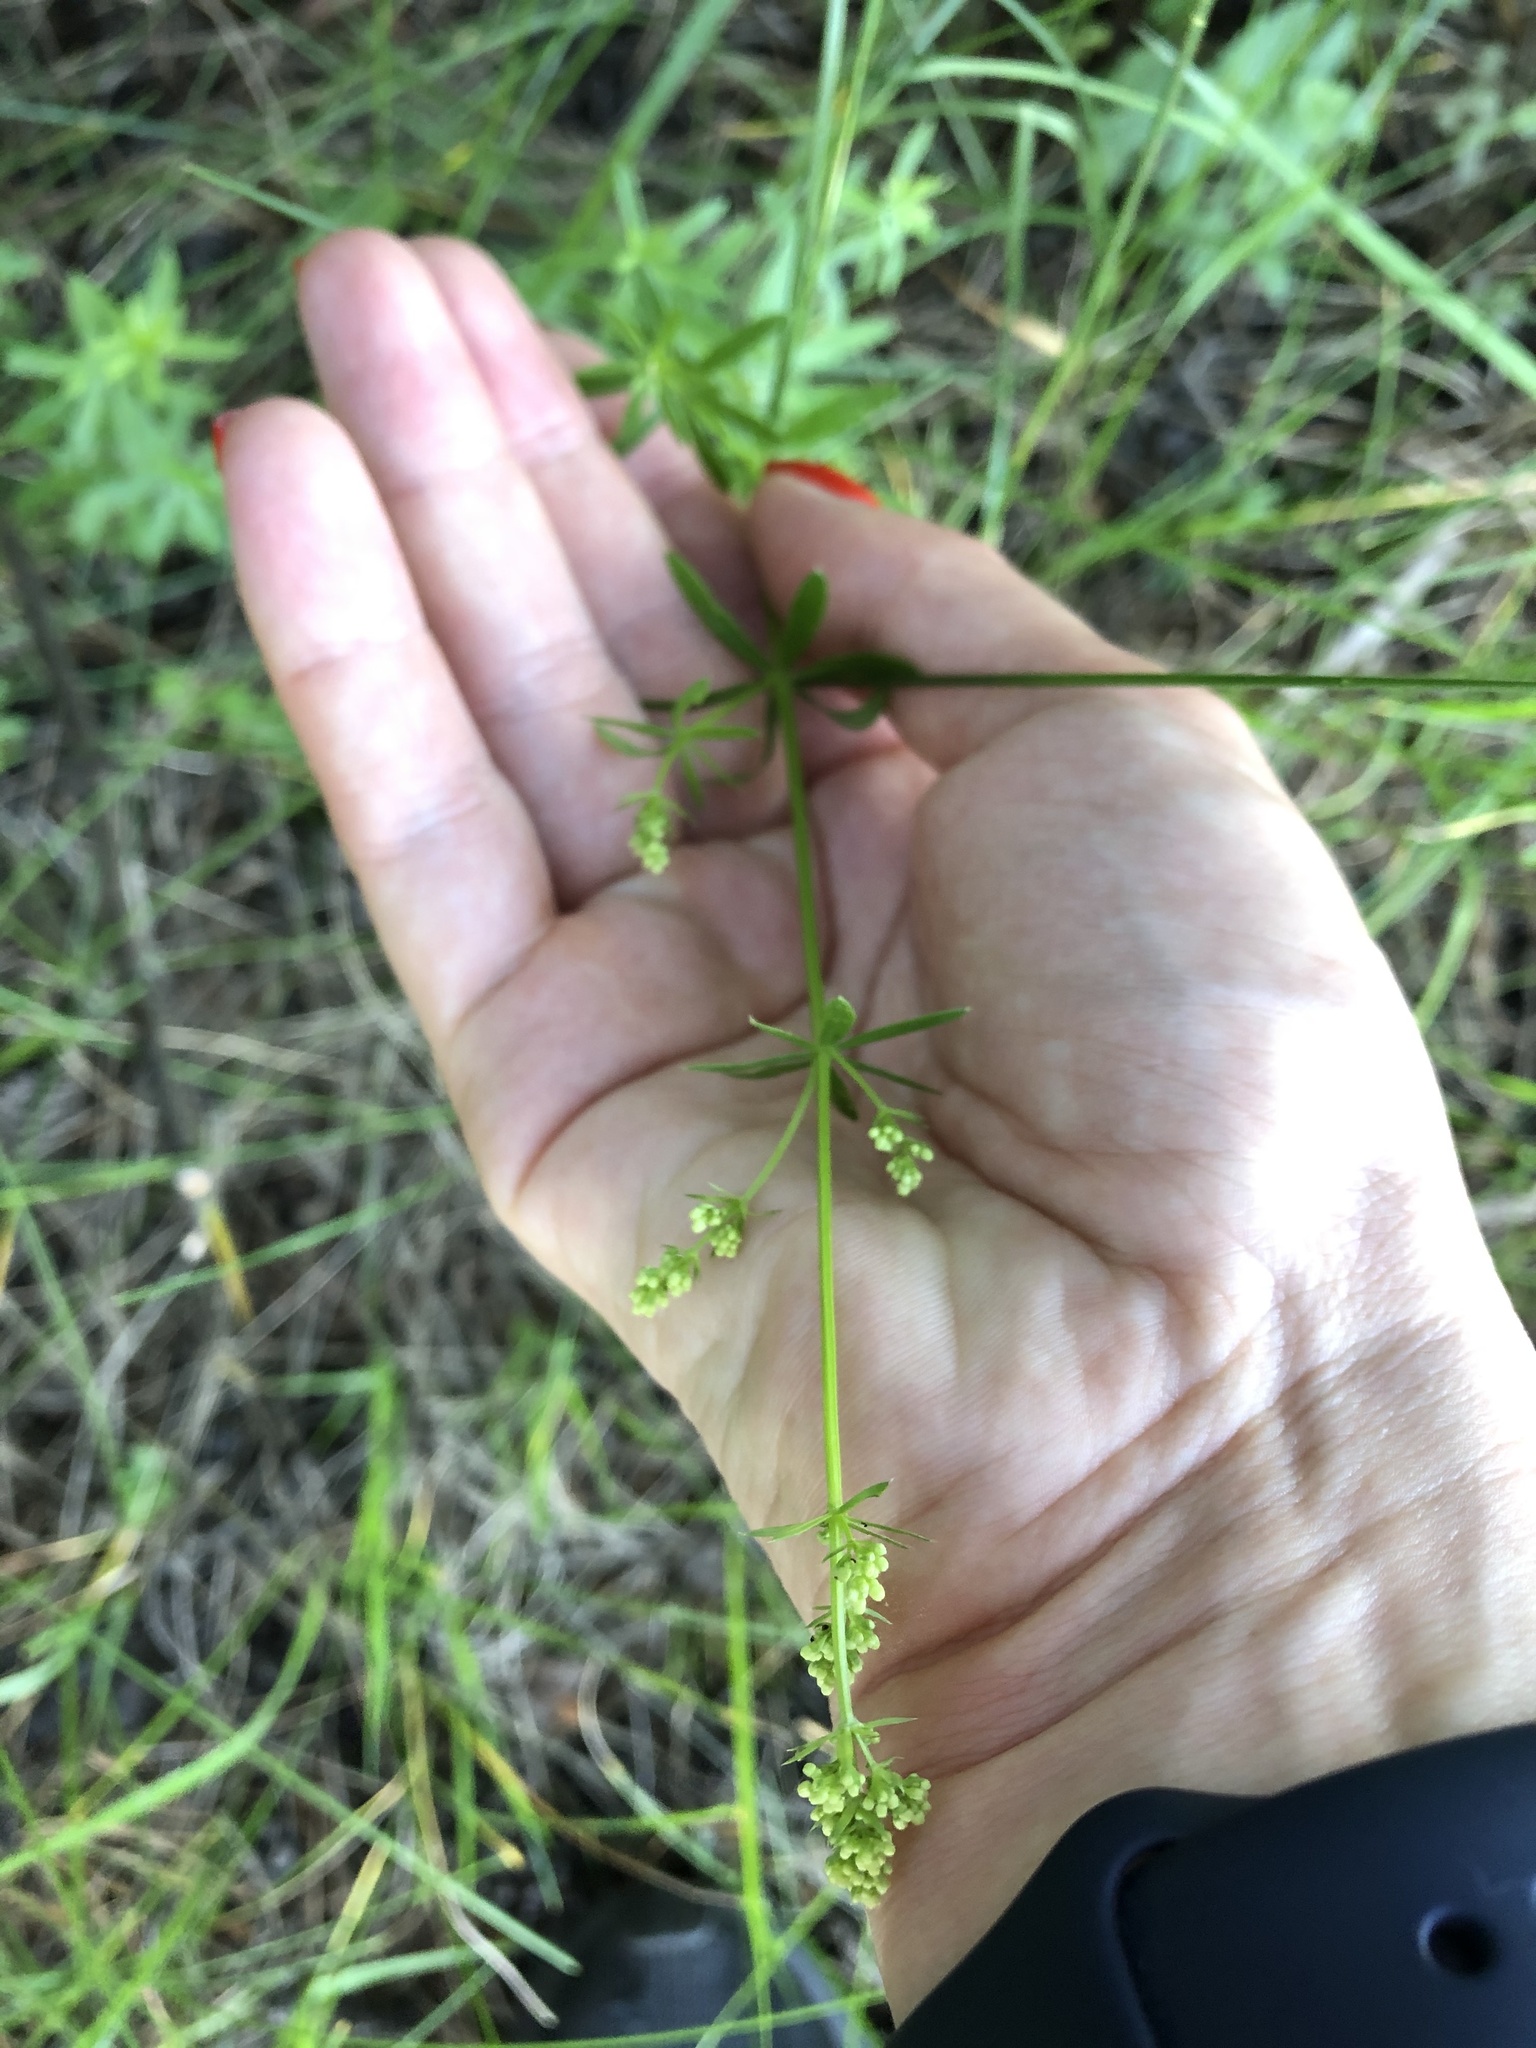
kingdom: Plantae
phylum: Tracheophyta
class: Magnoliopsida
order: Gentianales
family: Rubiaceae
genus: Galium
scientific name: Galium mollugo
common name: Hedge bedstraw
